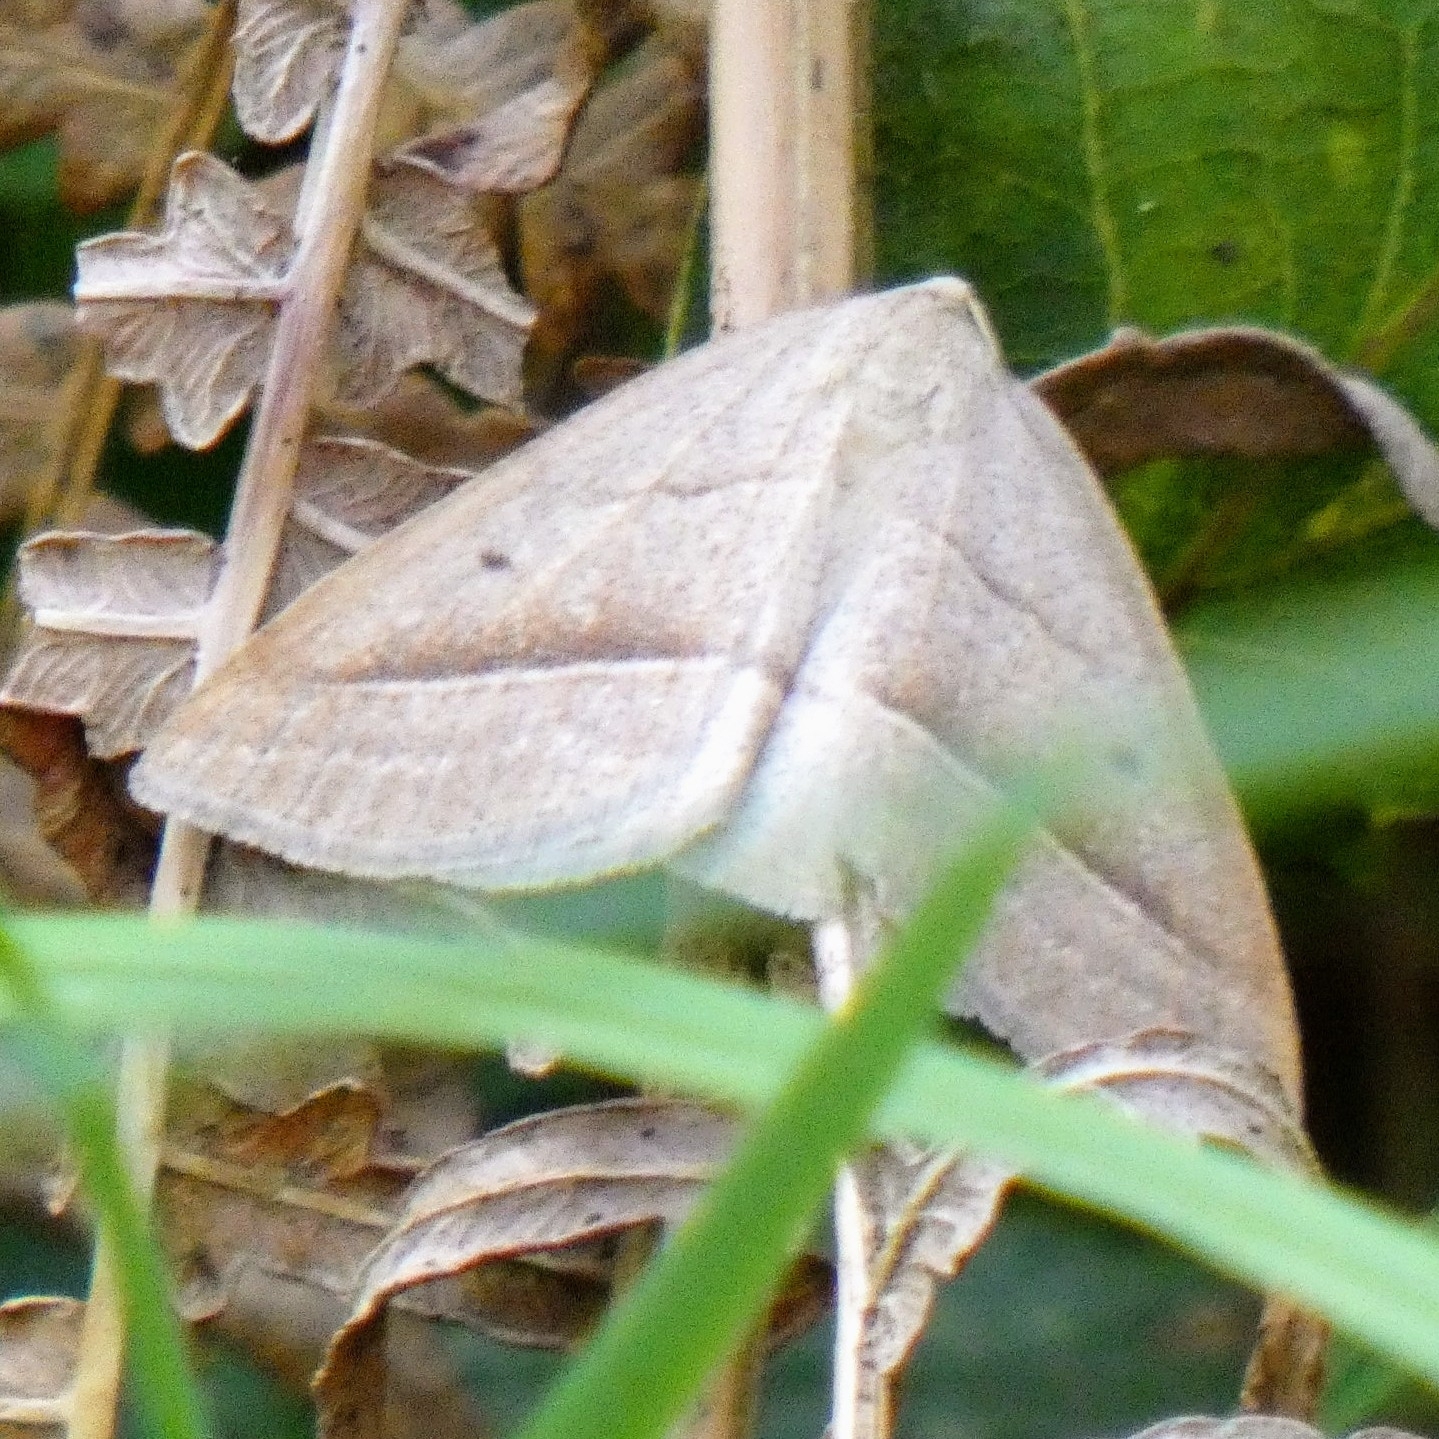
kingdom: Animalia
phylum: Arthropoda
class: Insecta
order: Lepidoptera
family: Pterophoridae
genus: Pterophorus
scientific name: Pterophorus Petrophora chlorosata
